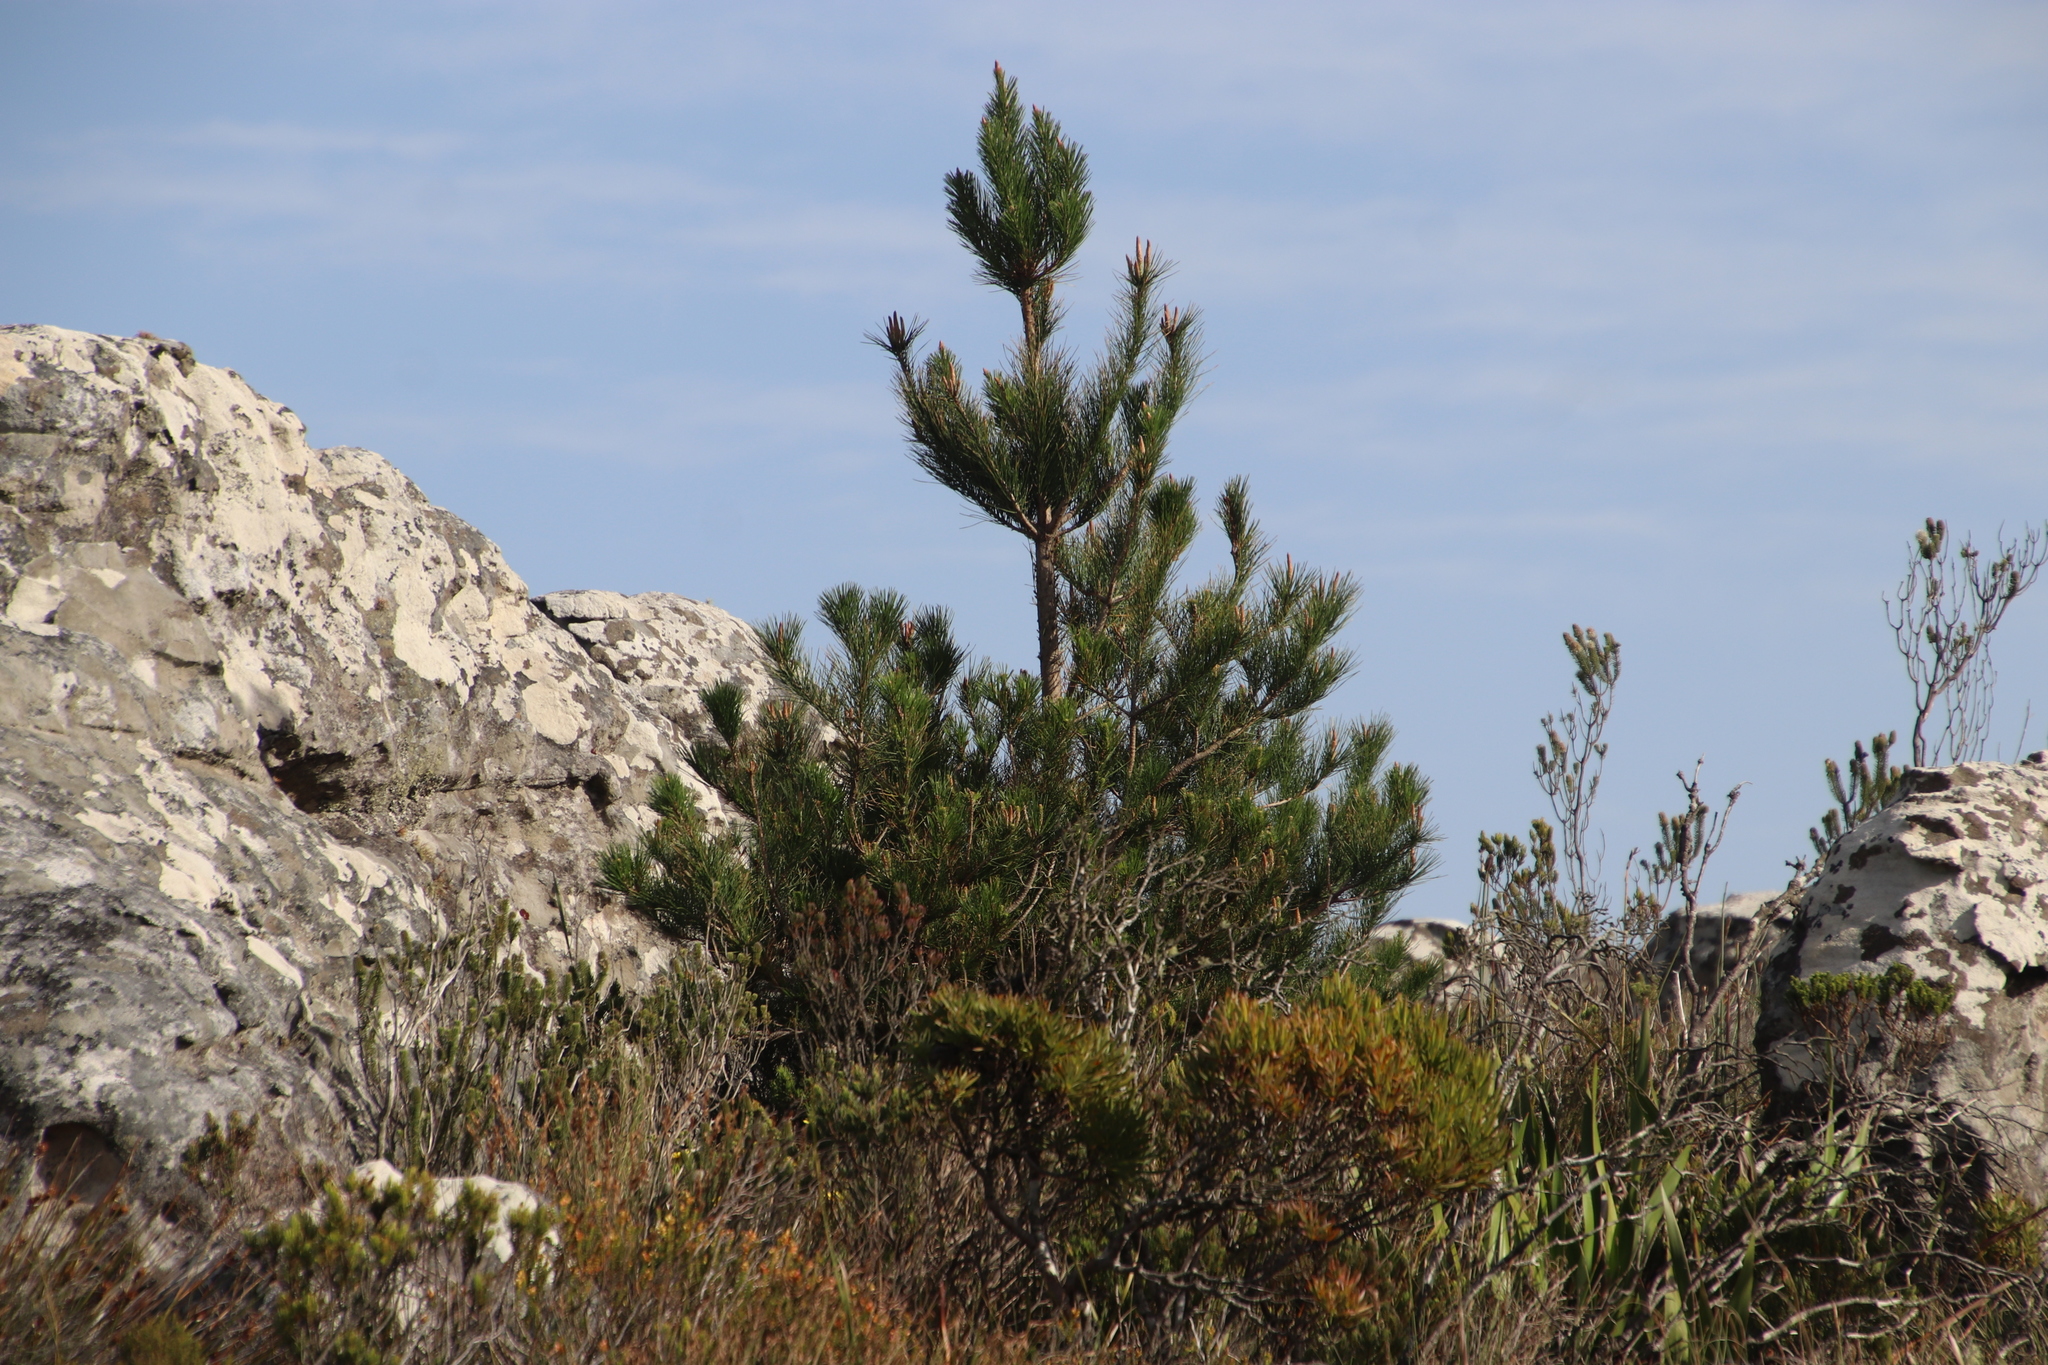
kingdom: Plantae
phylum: Tracheophyta
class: Pinopsida
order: Pinales
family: Pinaceae
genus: Pinus
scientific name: Pinus radiata
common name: Monterey pine
